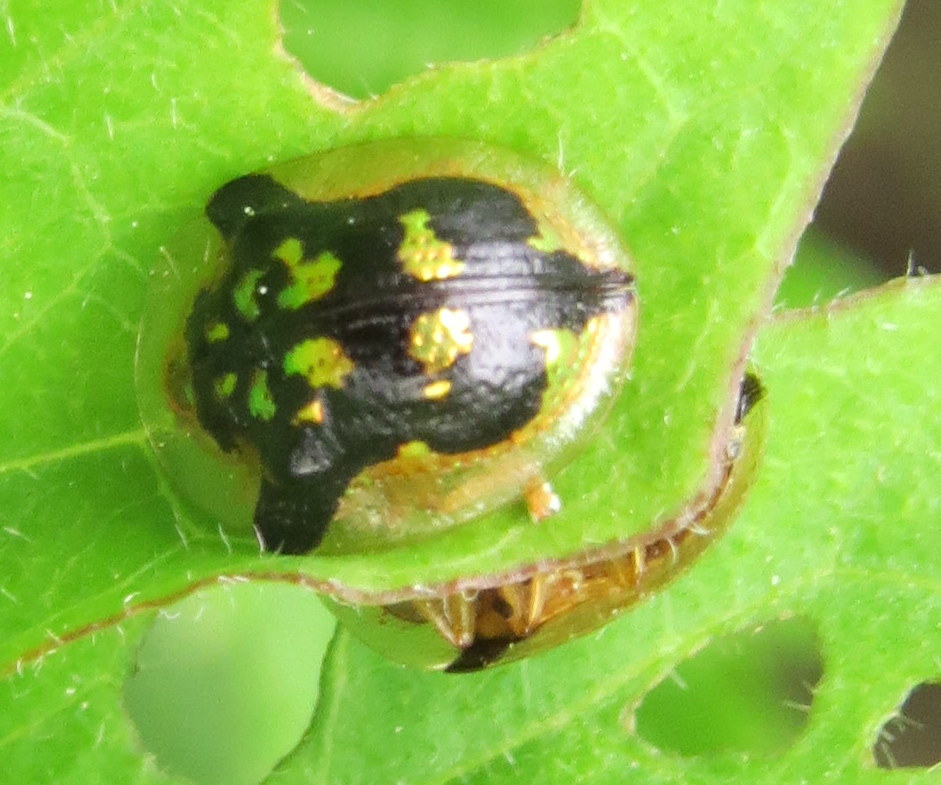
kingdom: Animalia
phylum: Arthropoda
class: Insecta
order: Coleoptera
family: Chrysomelidae
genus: Deloyala
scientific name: Deloyala guttata
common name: Mottled tortoise beetle
